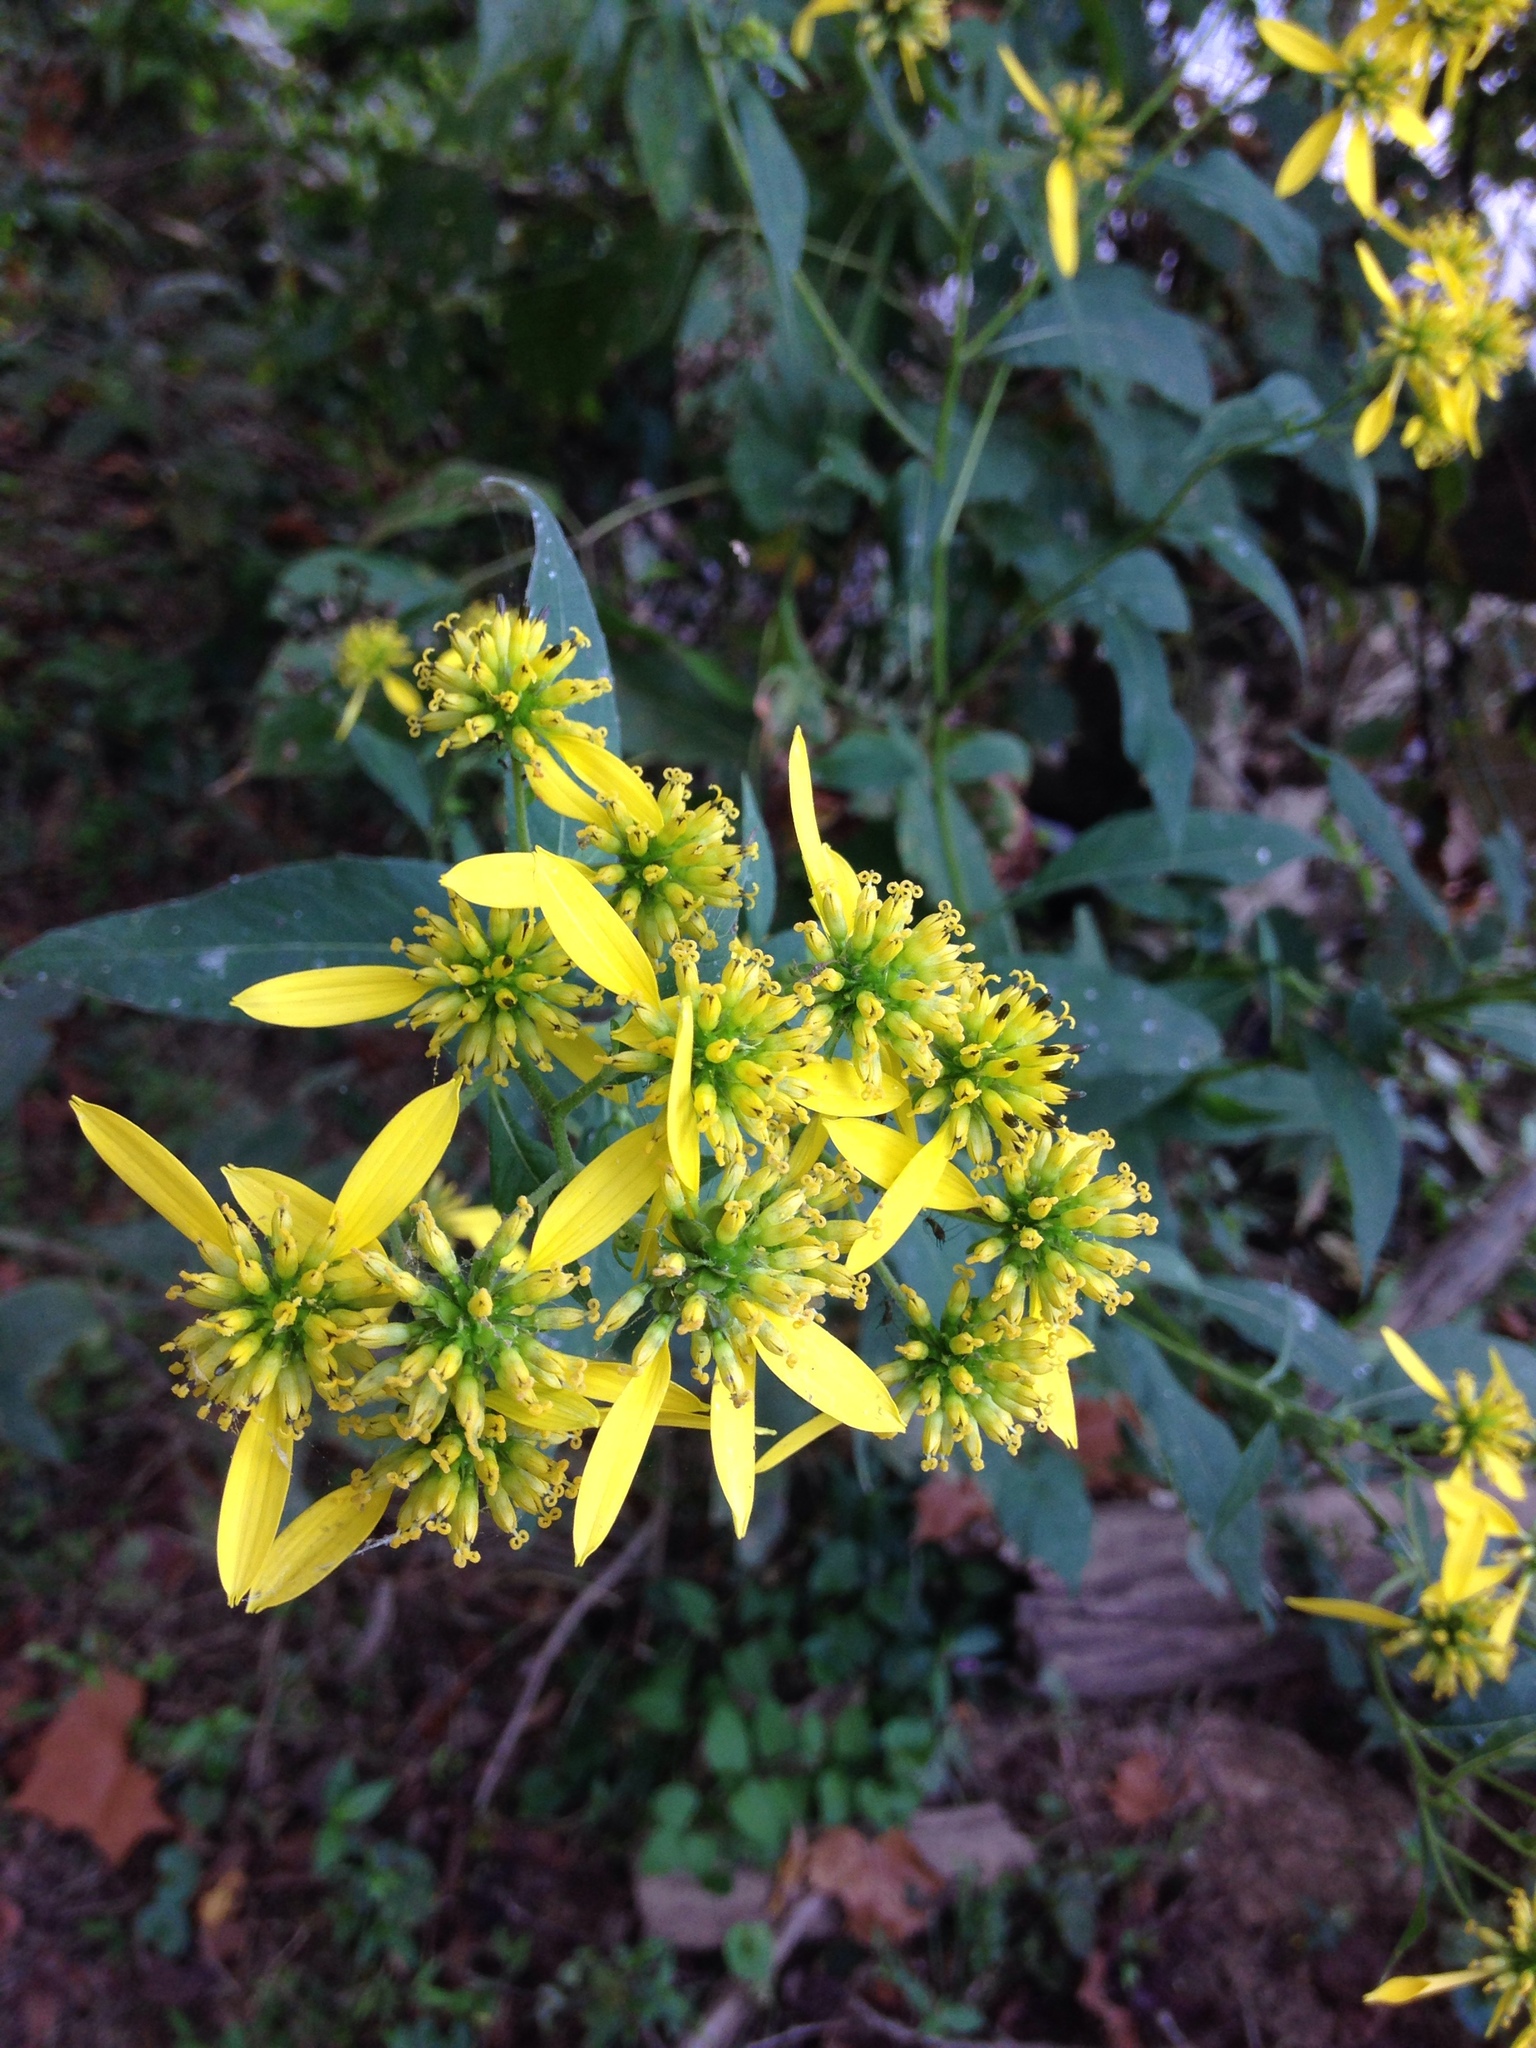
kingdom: Plantae
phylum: Tracheophyta
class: Magnoliopsida
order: Asterales
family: Asteraceae
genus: Verbesina
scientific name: Verbesina alternifolia
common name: Wingstem
